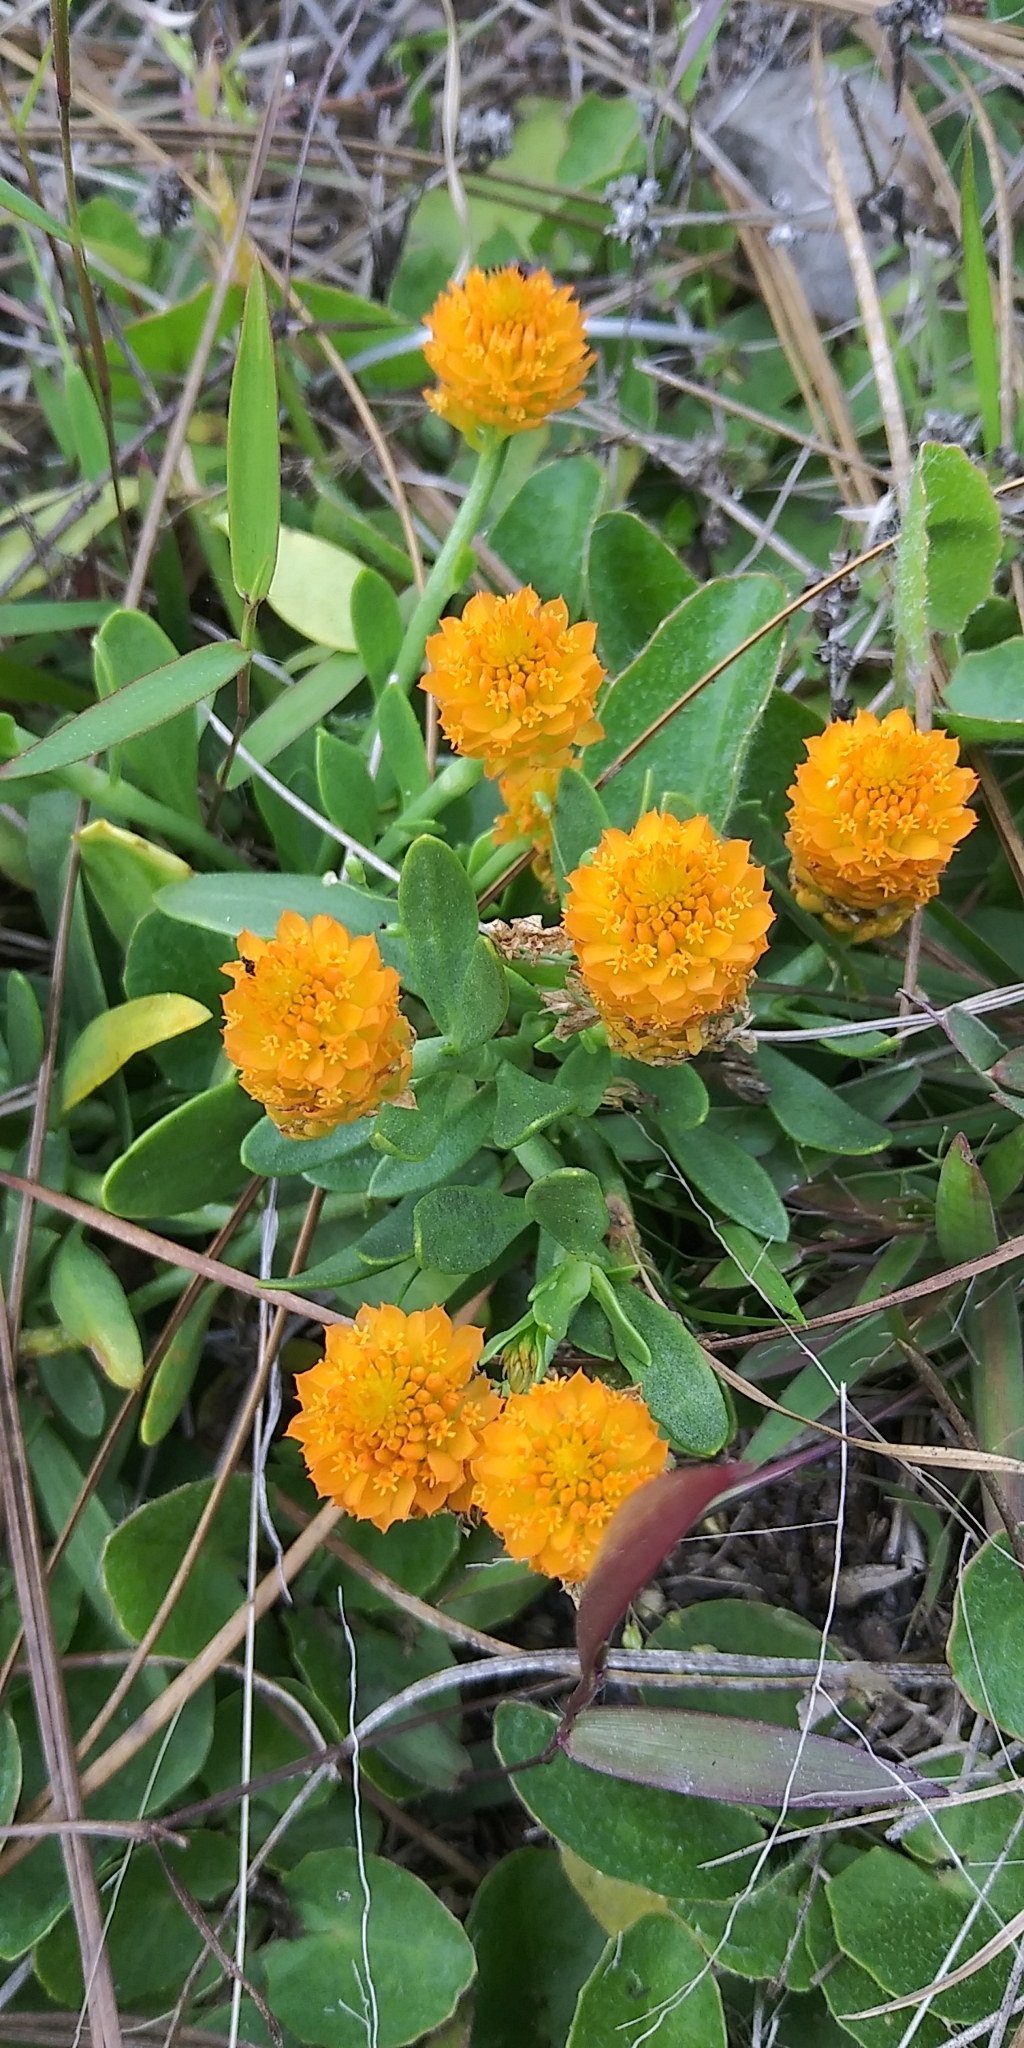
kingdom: Plantae
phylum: Tracheophyta
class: Magnoliopsida
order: Fabales
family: Polygalaceae
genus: Polygala
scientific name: Polygala lutea
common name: Orange milkwort
